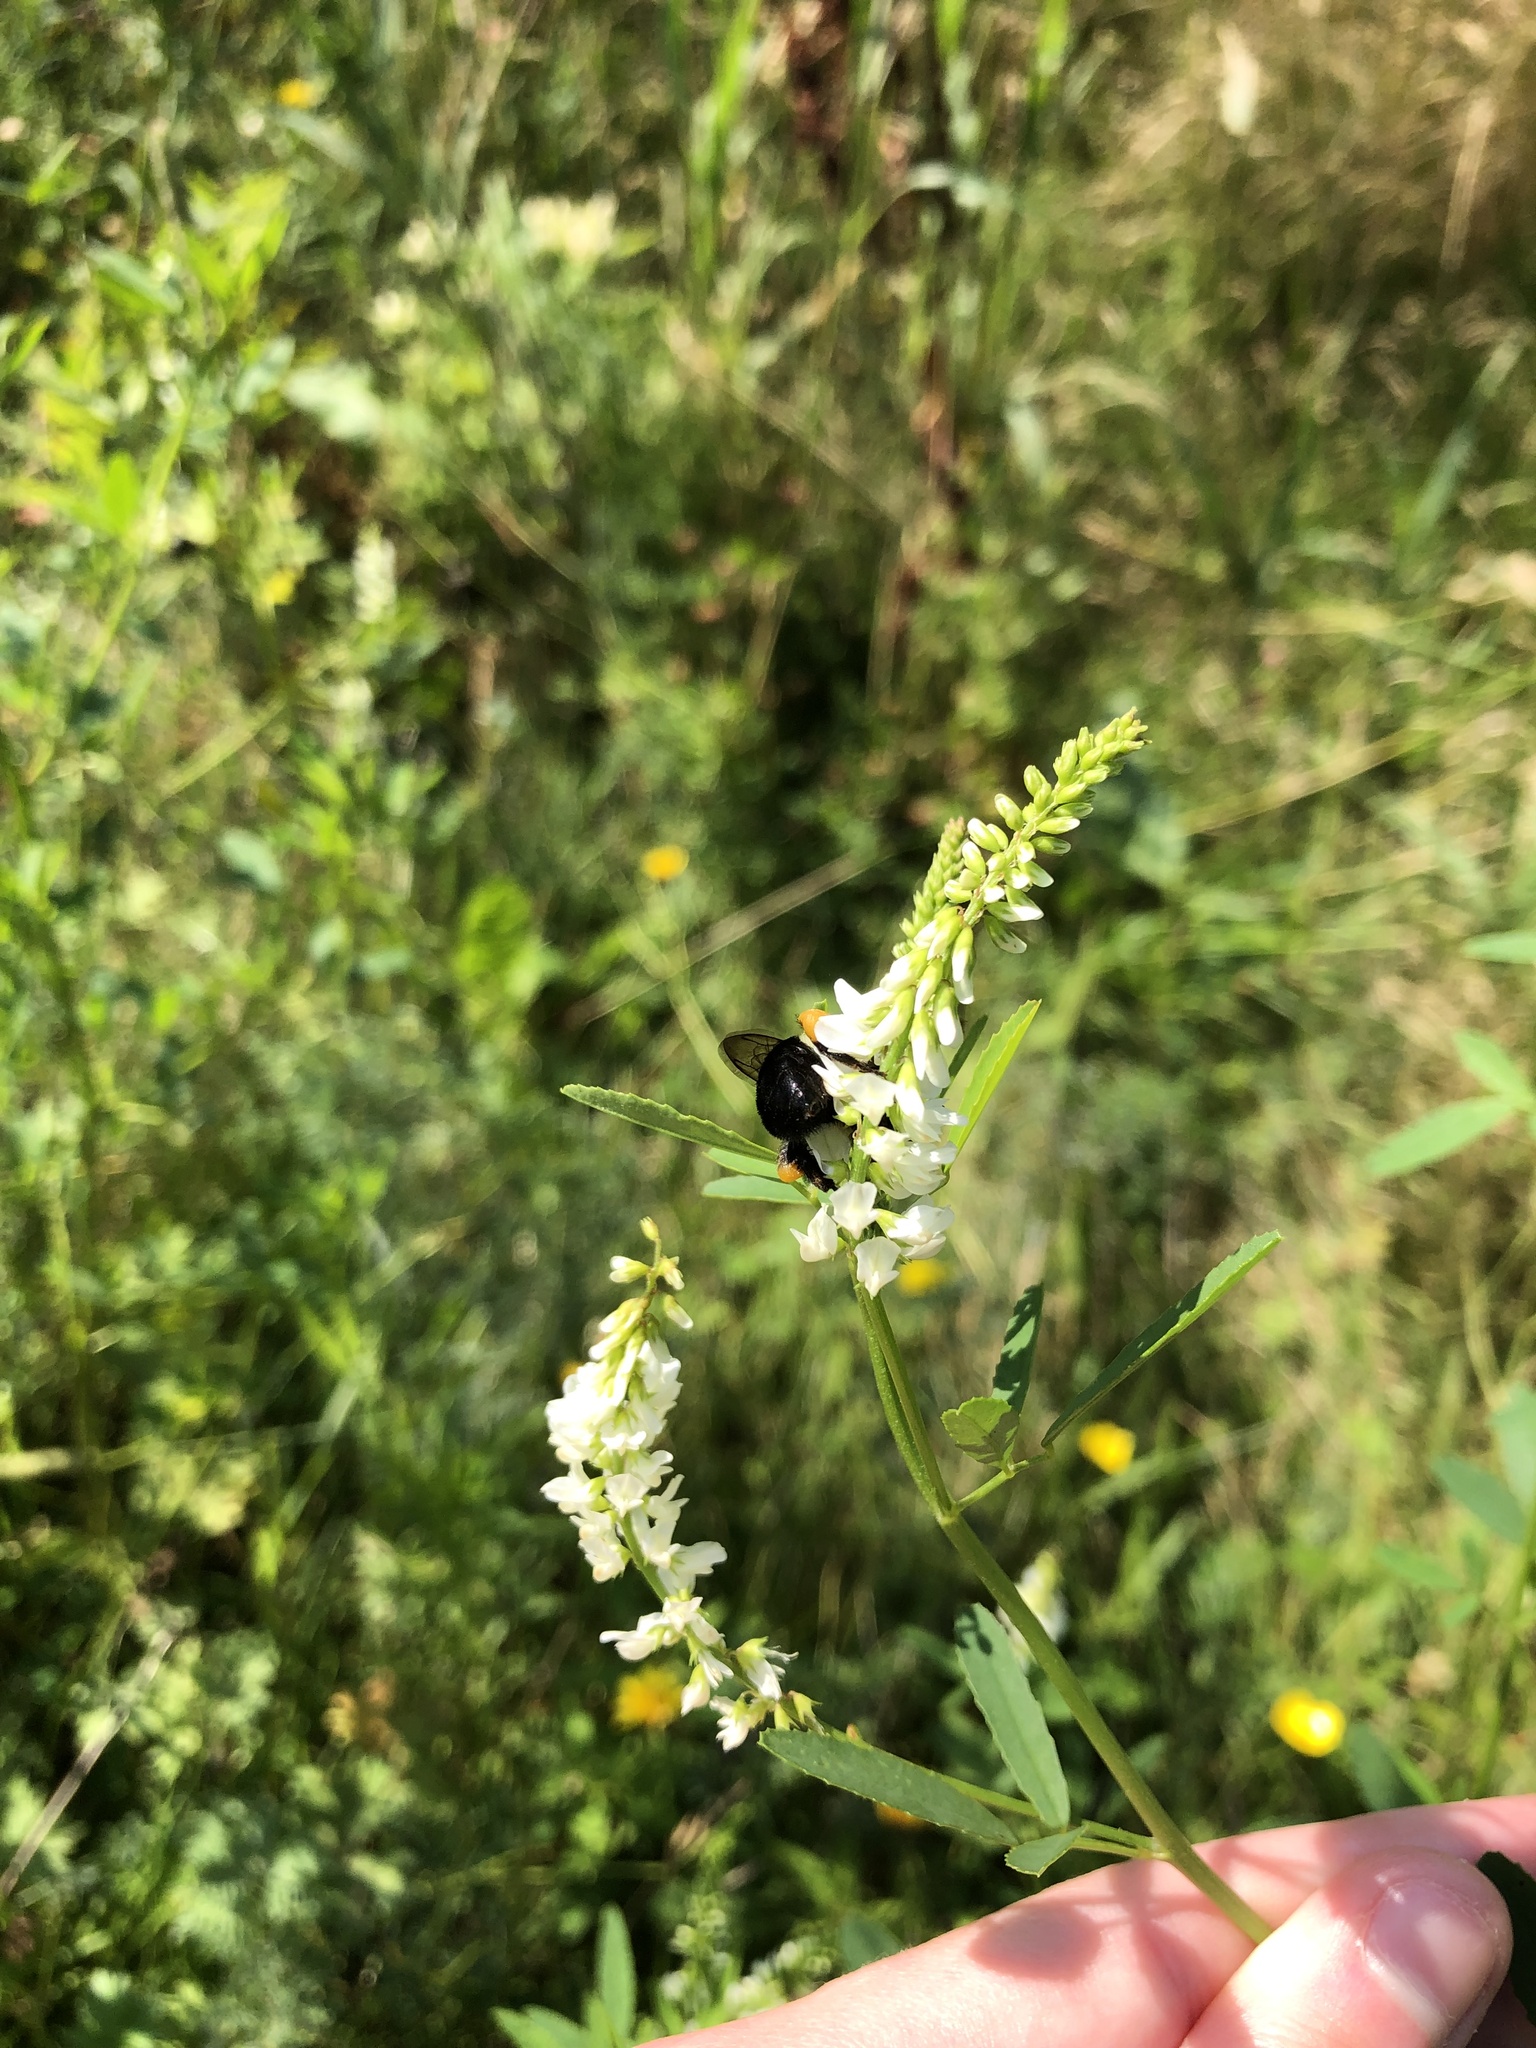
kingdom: Animalia
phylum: Arthropoda
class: Insecta
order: Hymenoptera
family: Apidae
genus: Bombus
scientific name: Bombus
